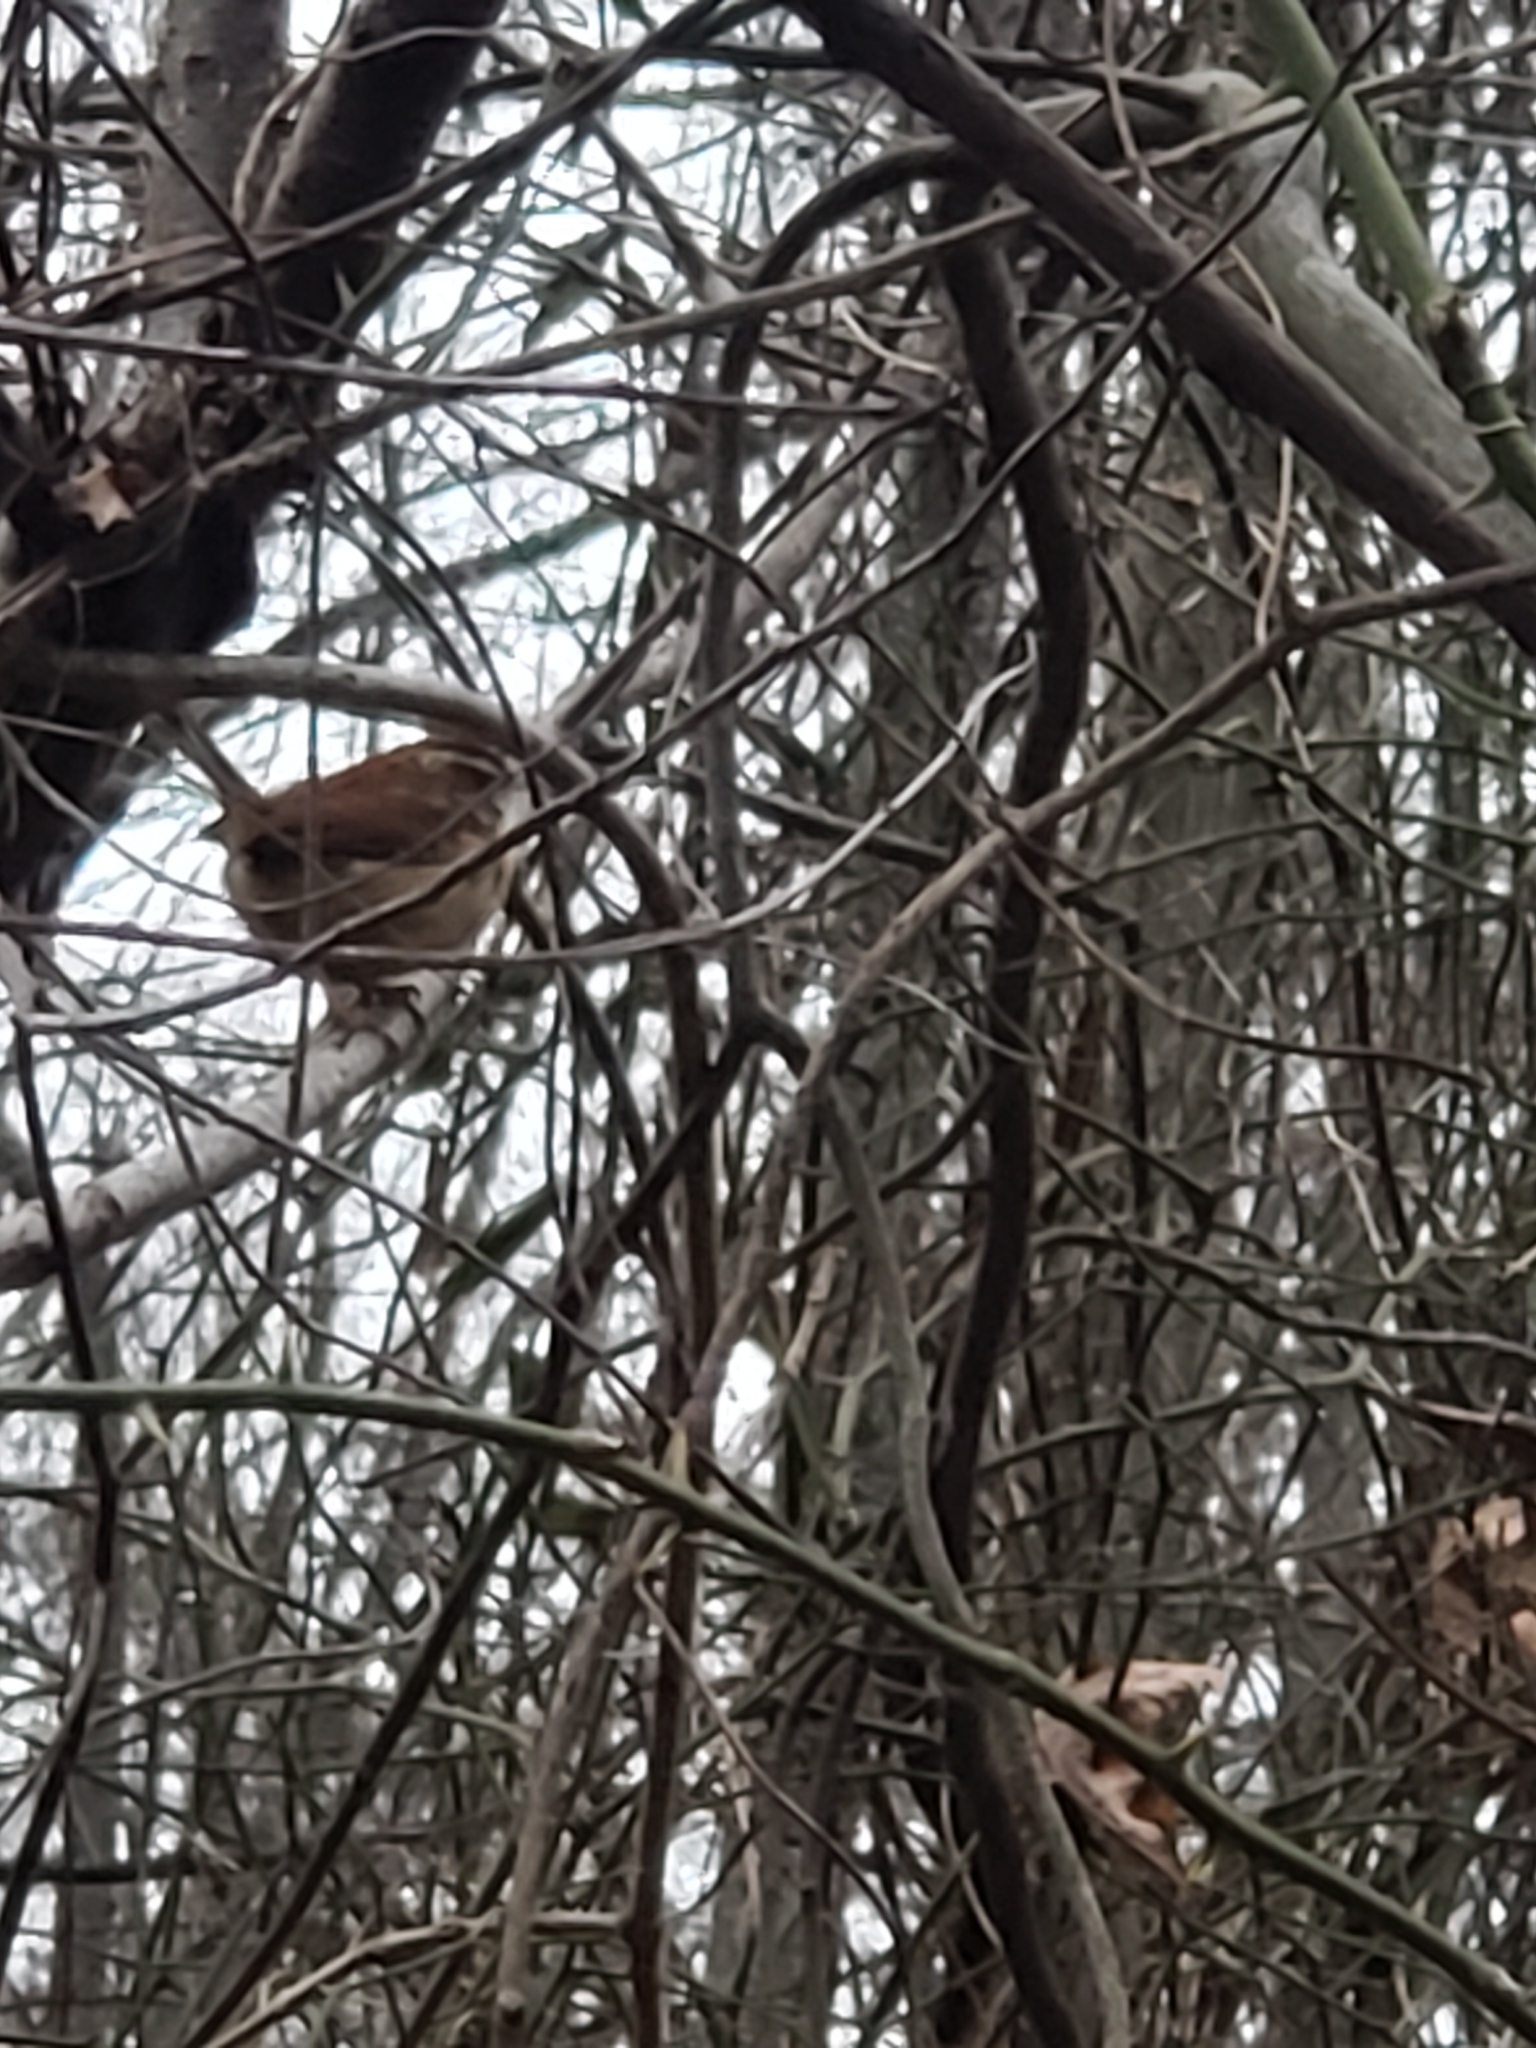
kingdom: Animalia
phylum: Chordata
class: Aves
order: Passeriformes
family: Troglodytidae
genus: Thryothorus
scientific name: Thryothorus ludovicianus
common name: Carolina wren
